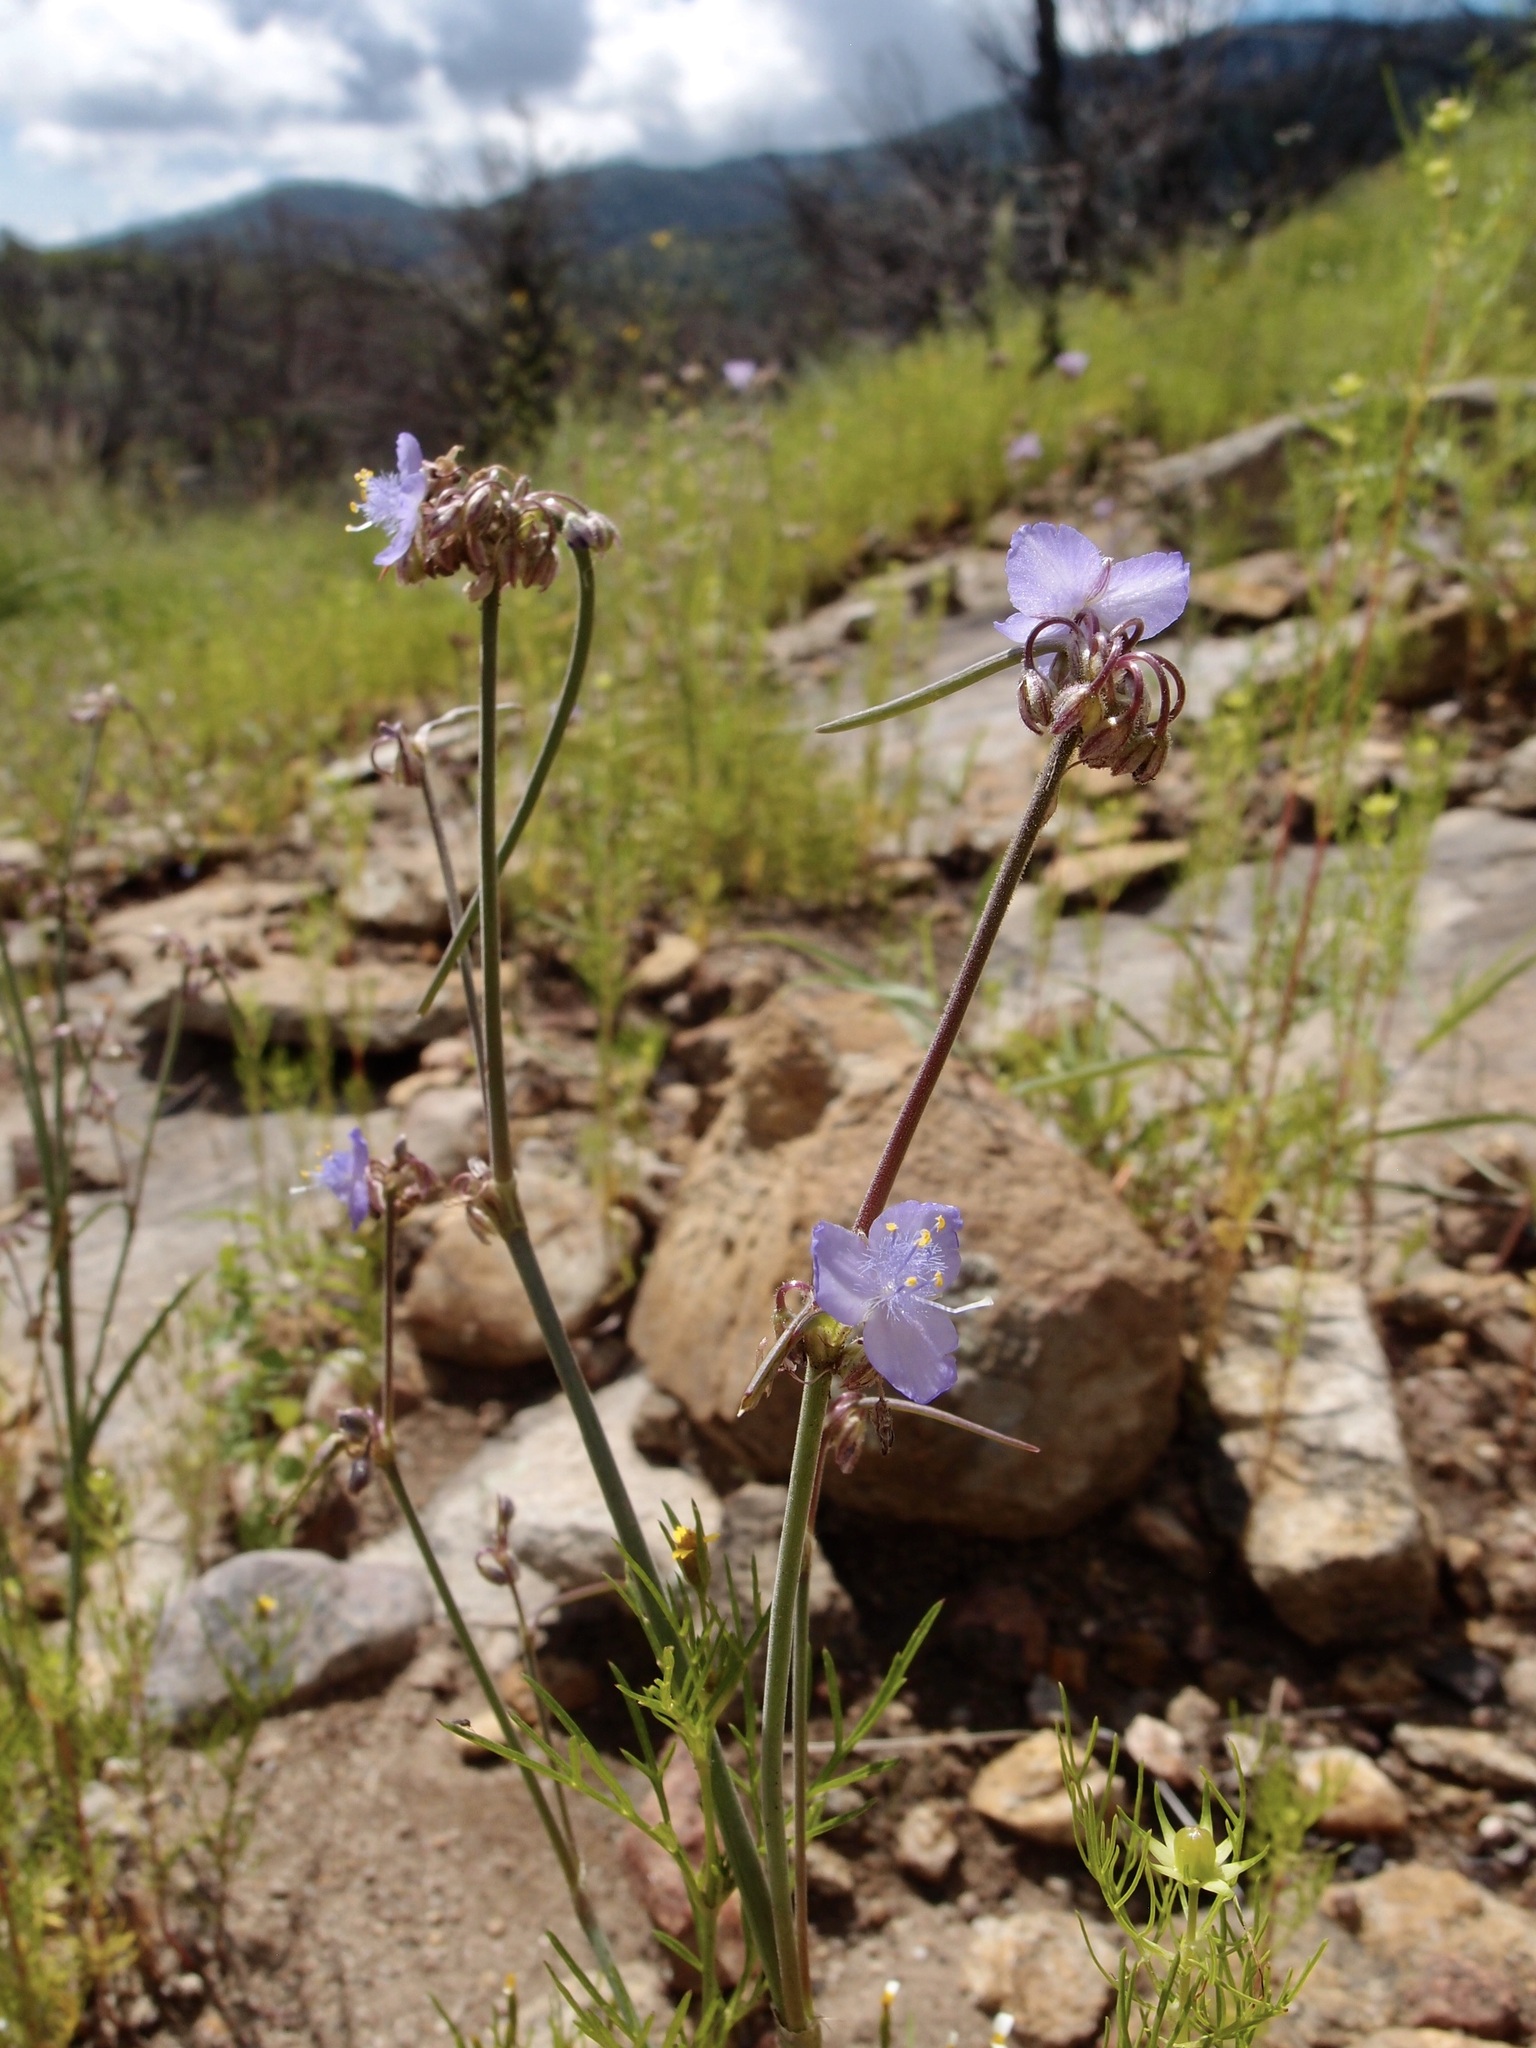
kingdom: Plantae
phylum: Tracheophyta
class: Liliopsida
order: Commelinales
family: Commelinaceae
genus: Tradescantia
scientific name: Tradescantia pinetorum
